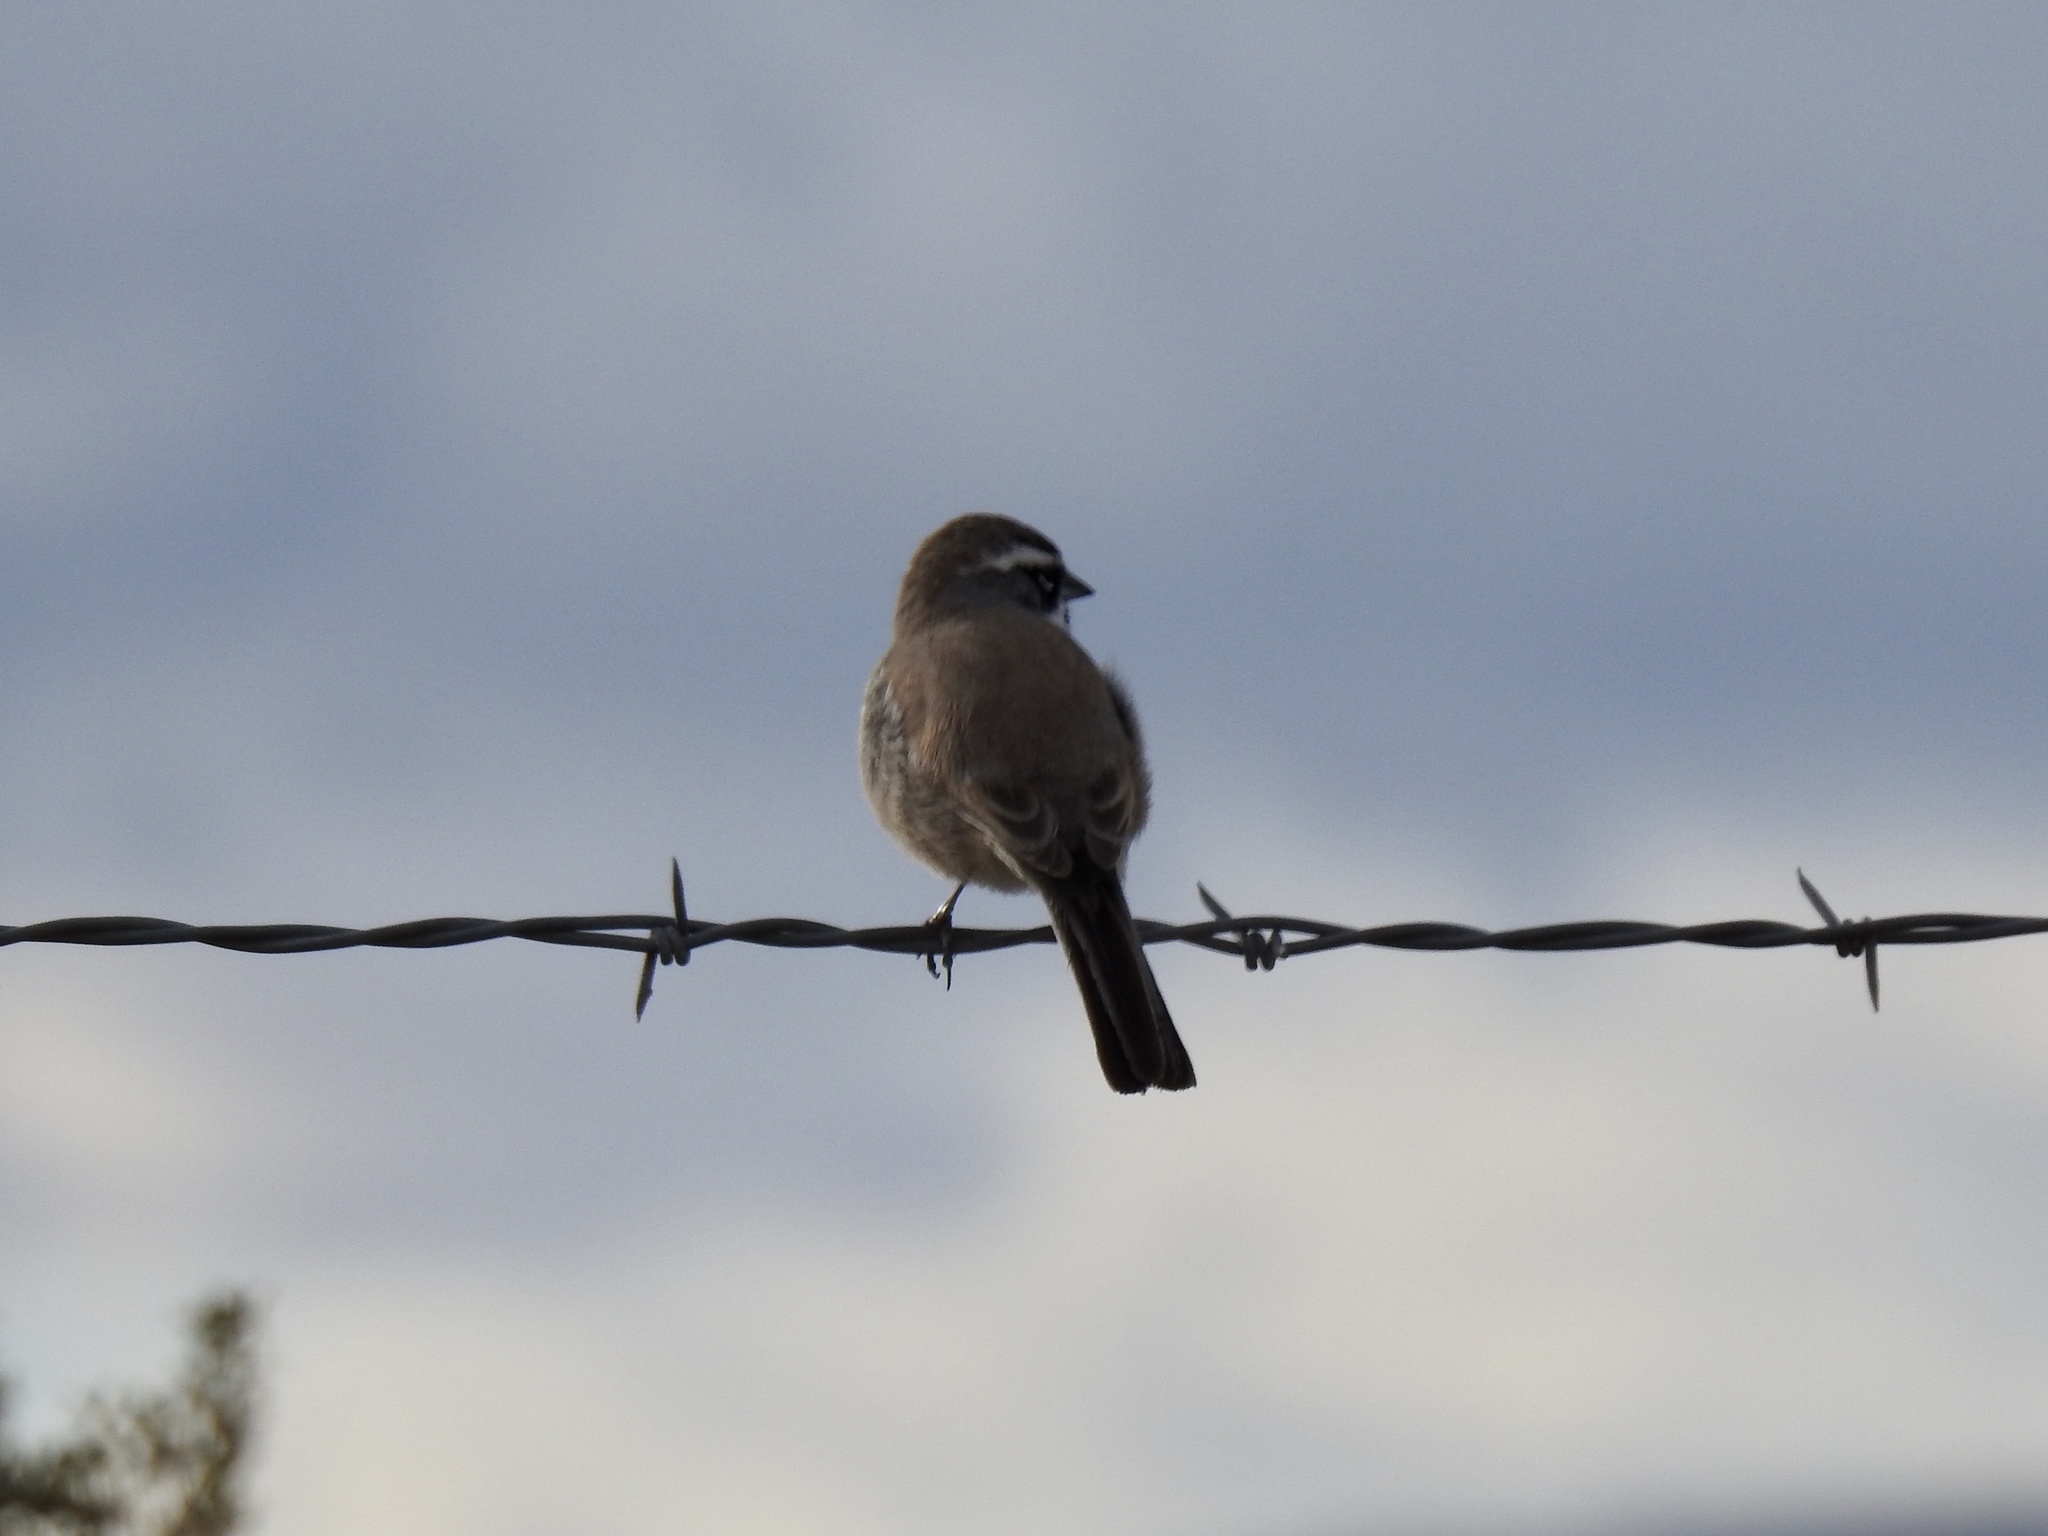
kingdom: Animalia
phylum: Chordata
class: Aves
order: Passeriformes
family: Passerellidae
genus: Amphispiza
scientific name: Amphispiza bilineata
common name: Black-throated sparrow
